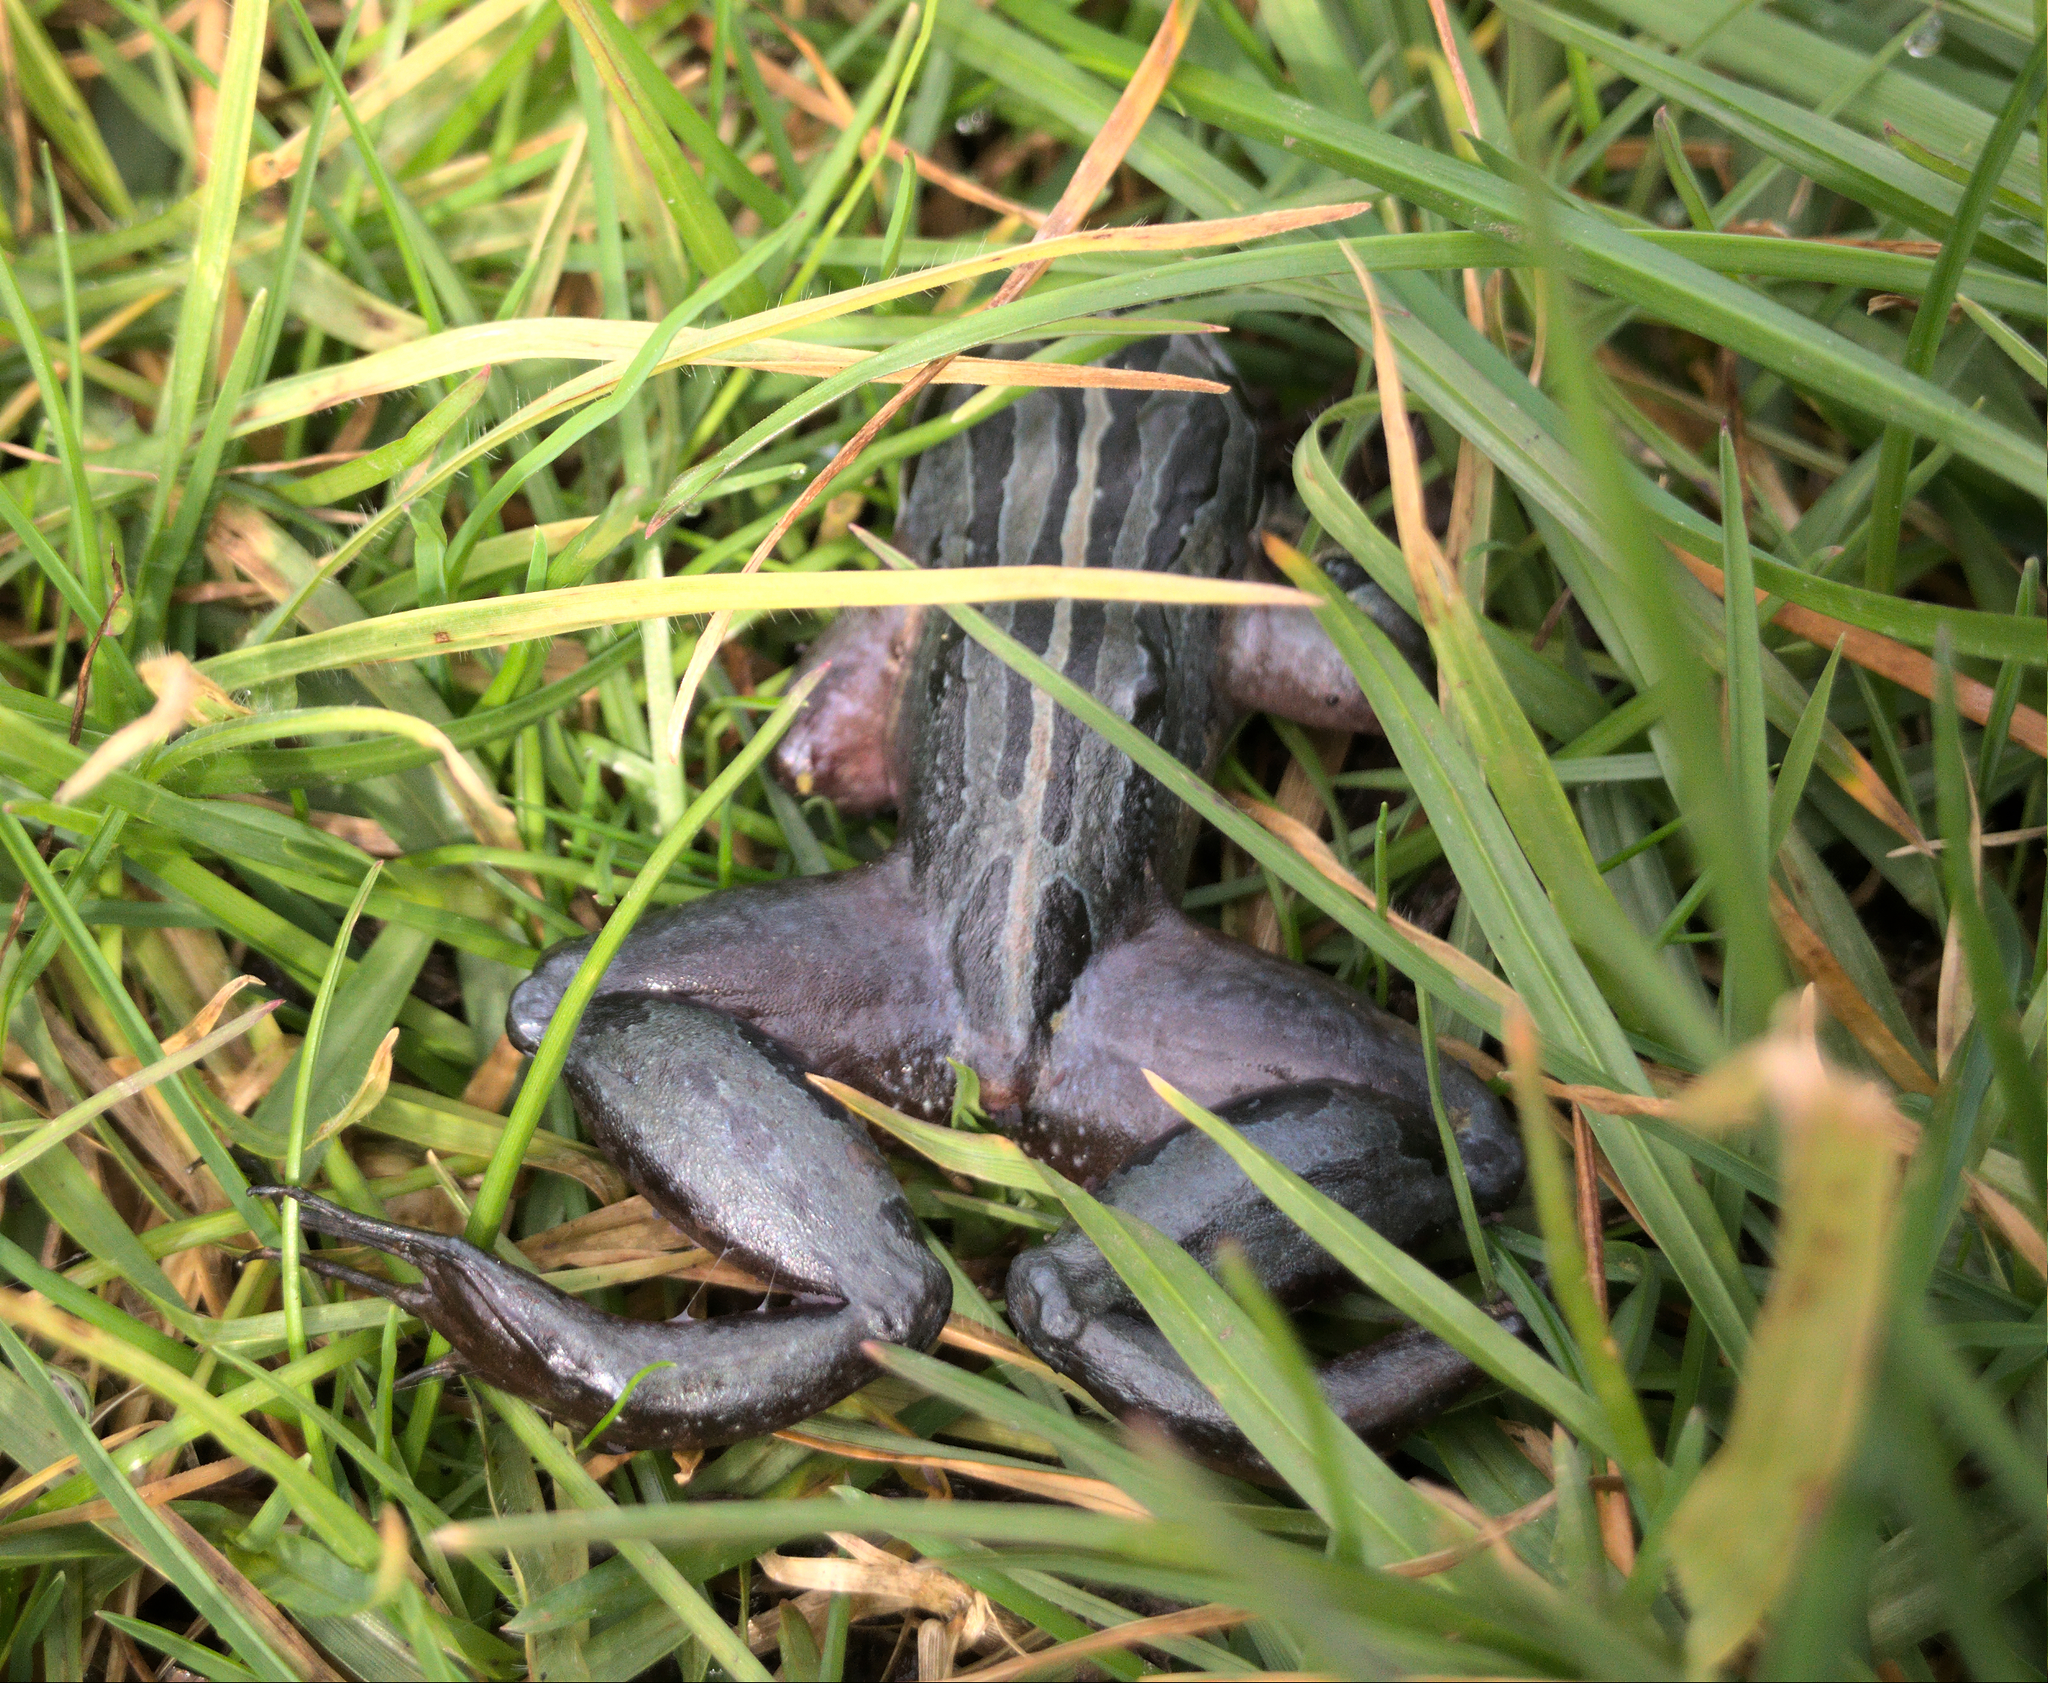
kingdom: Animalia
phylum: Chordata
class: Amphibia
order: Anura
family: Limnodynastidae
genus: Limnodynastes
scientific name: Limnodynastes peronii
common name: Brown frog
